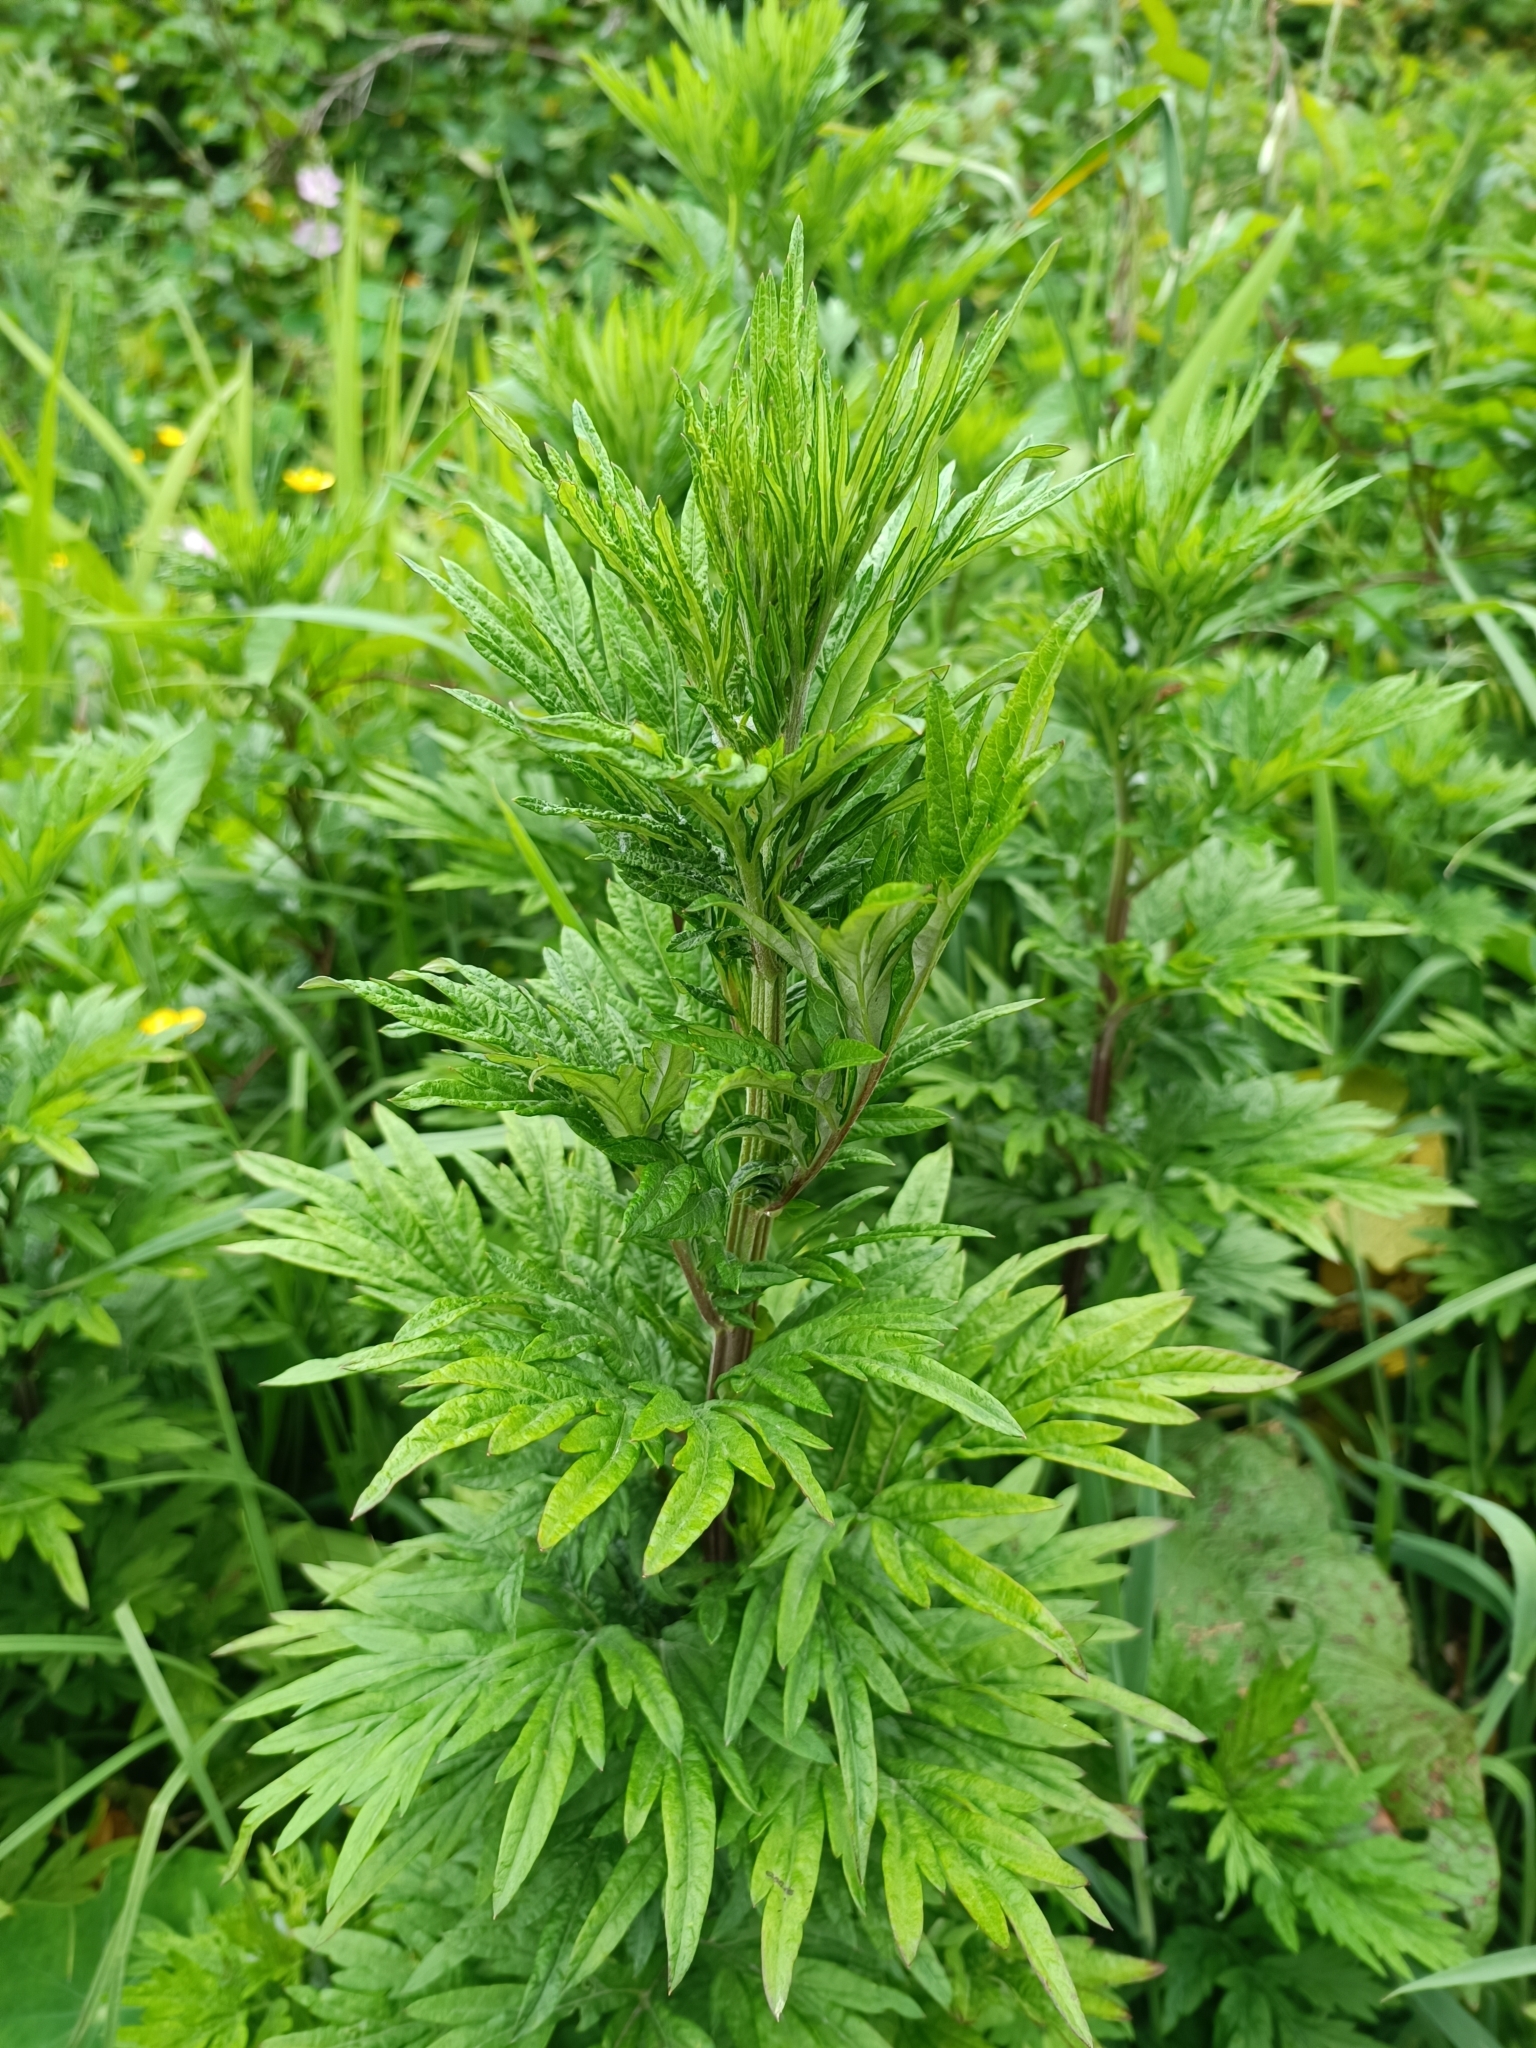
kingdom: Plantae
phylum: Tracheophyta
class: Magnoliopsida
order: Asterales
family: Asteraceae
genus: Artemisia
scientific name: Artemisia verlotiorum
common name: Chinese mugwort
